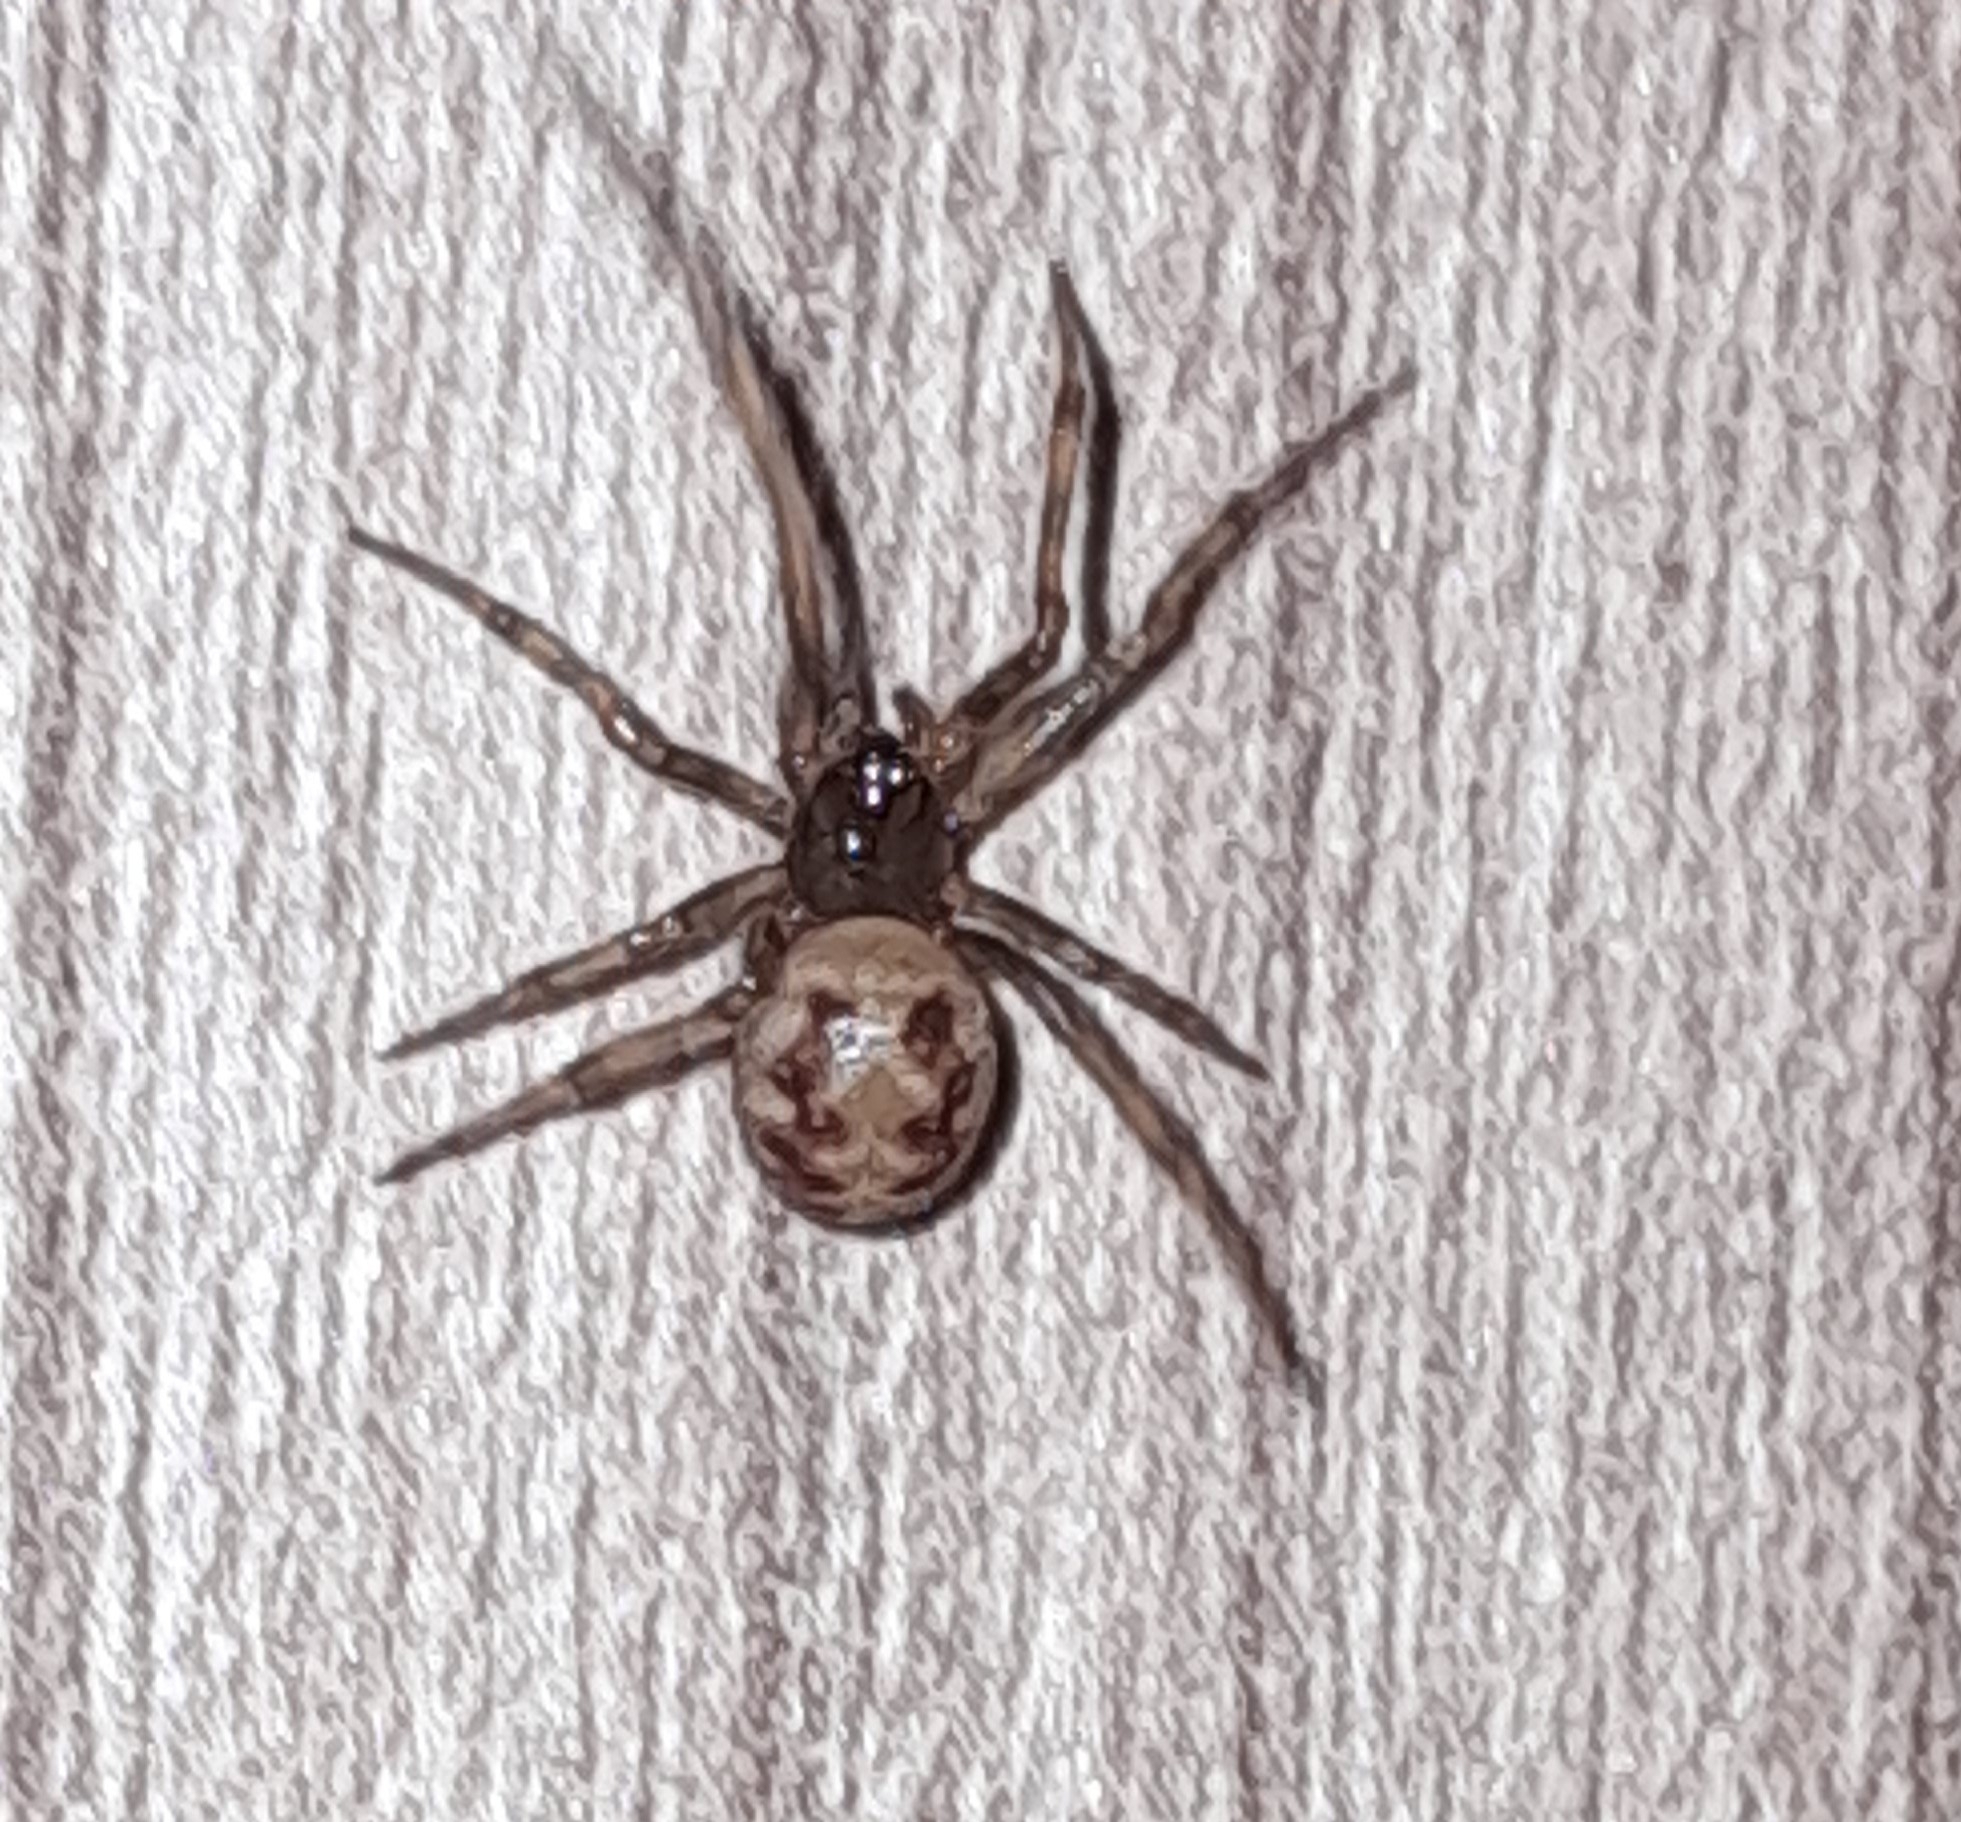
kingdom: Animalia
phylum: Arthropoda
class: Arachnida
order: Araneae
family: Theridiidae
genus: Steatoda
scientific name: Steatoda triangulosa
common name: Triangulate bud spider
